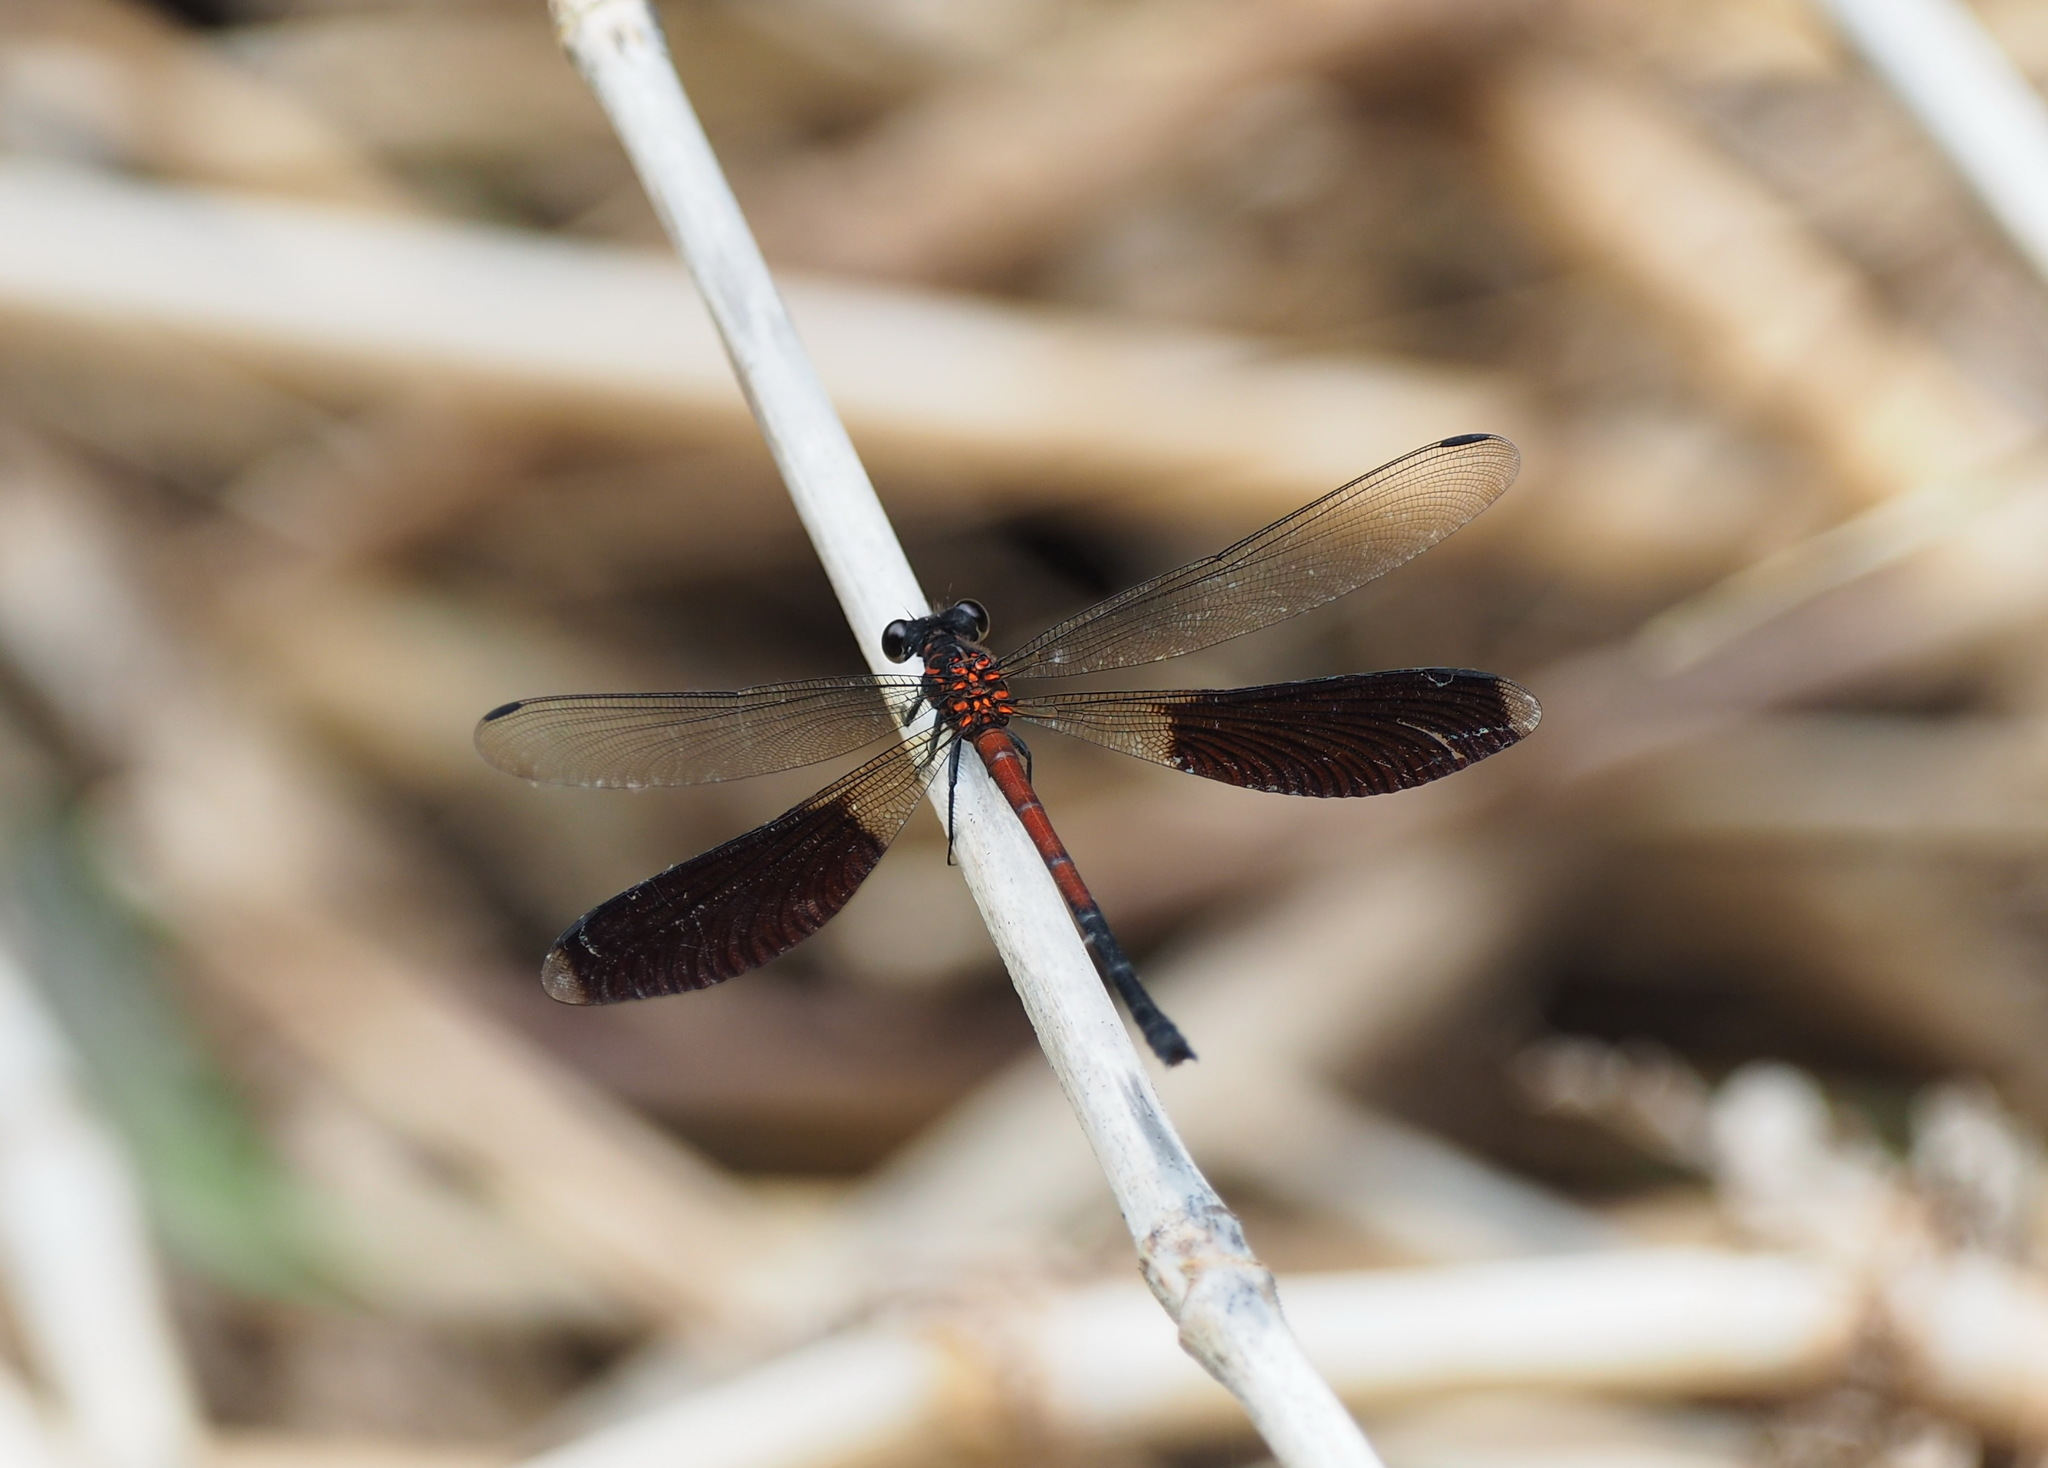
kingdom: Animalia
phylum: Arthropoda
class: Insecta
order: Odonata
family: Euphaeidae
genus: Euphaea
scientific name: Euphaea formosa
